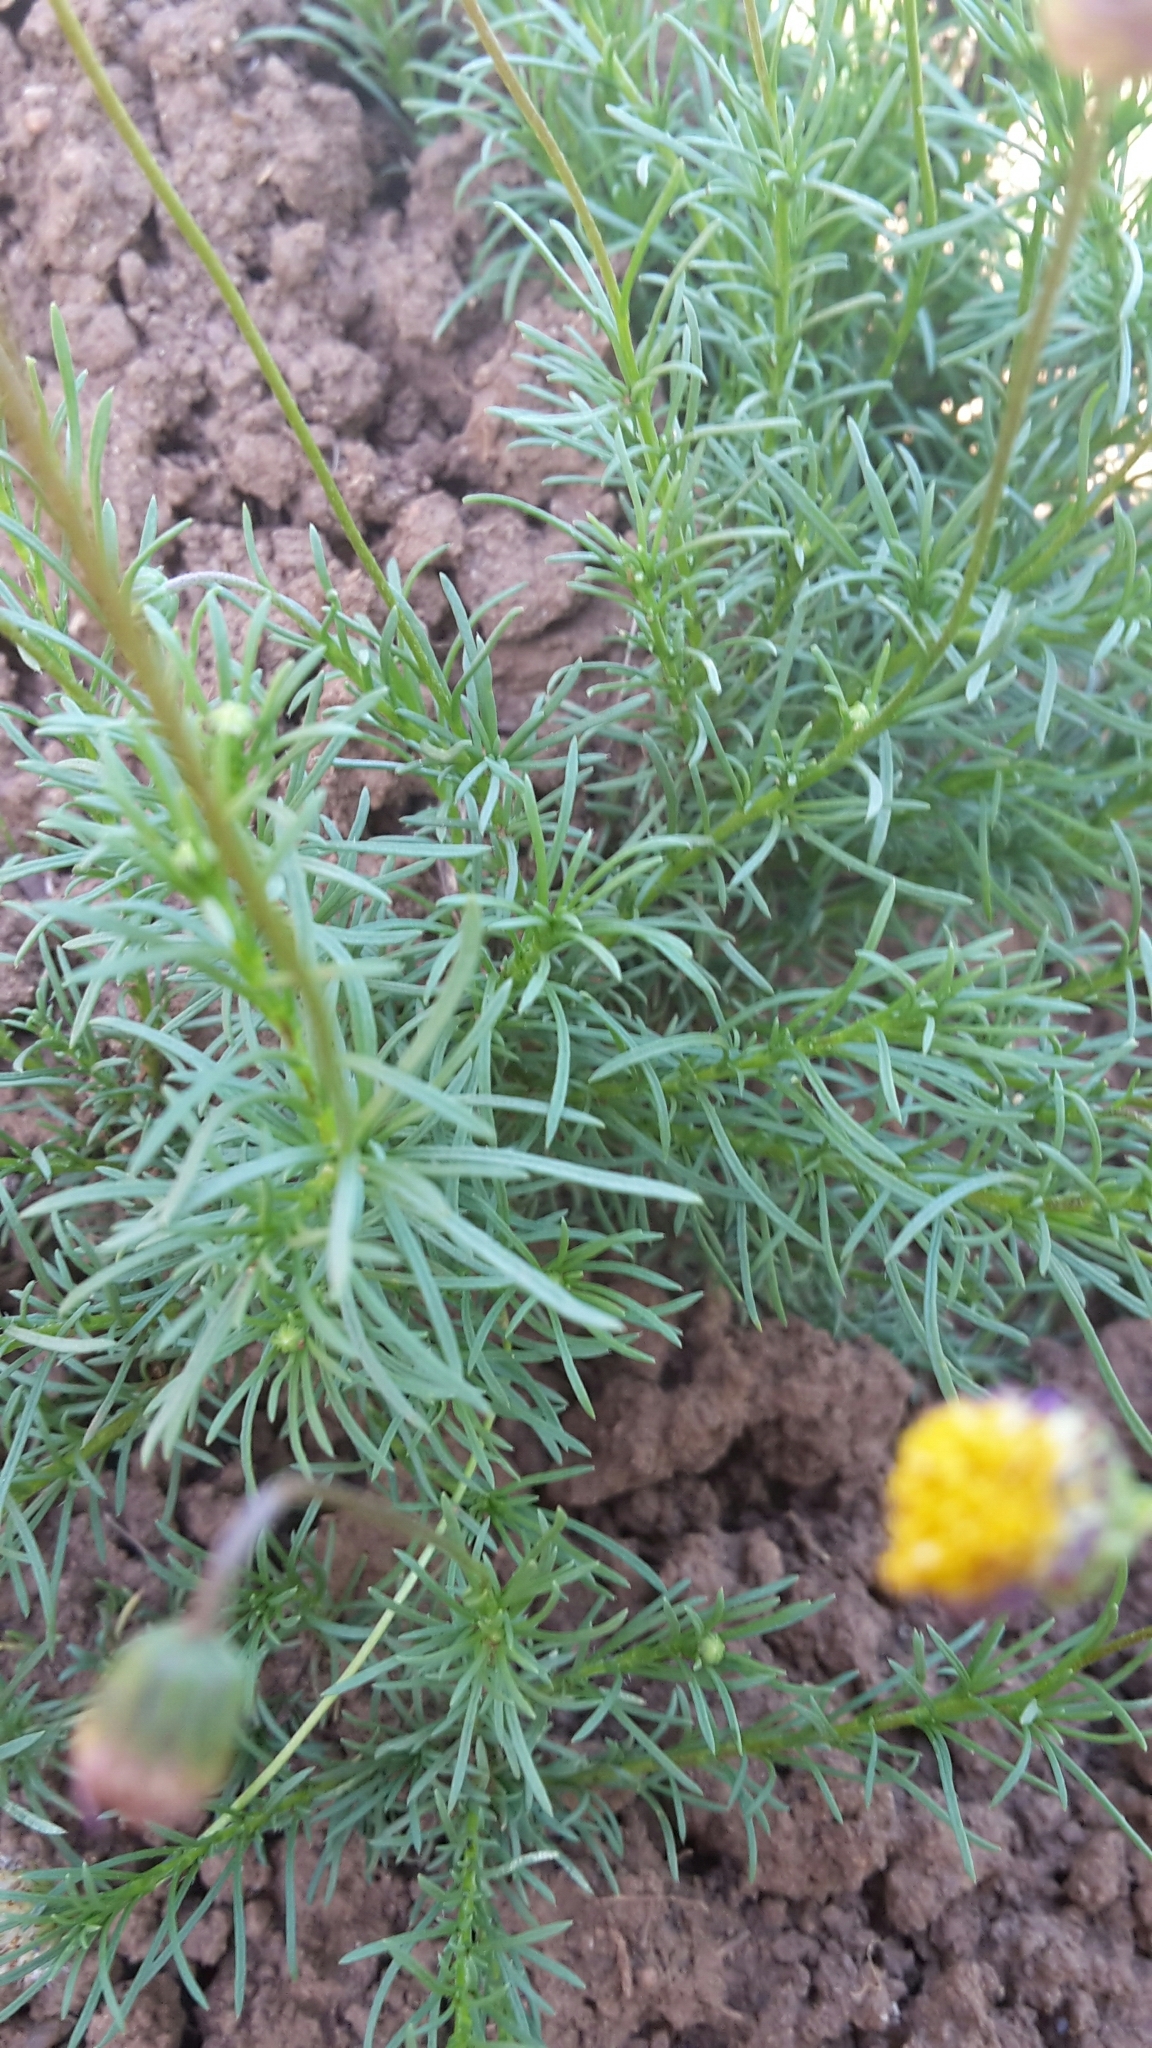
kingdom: Plantae
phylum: Tracheophyta
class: Magnoliopsida
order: Asterales
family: Asteraceae
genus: Felicia
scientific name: Felicia muricata
